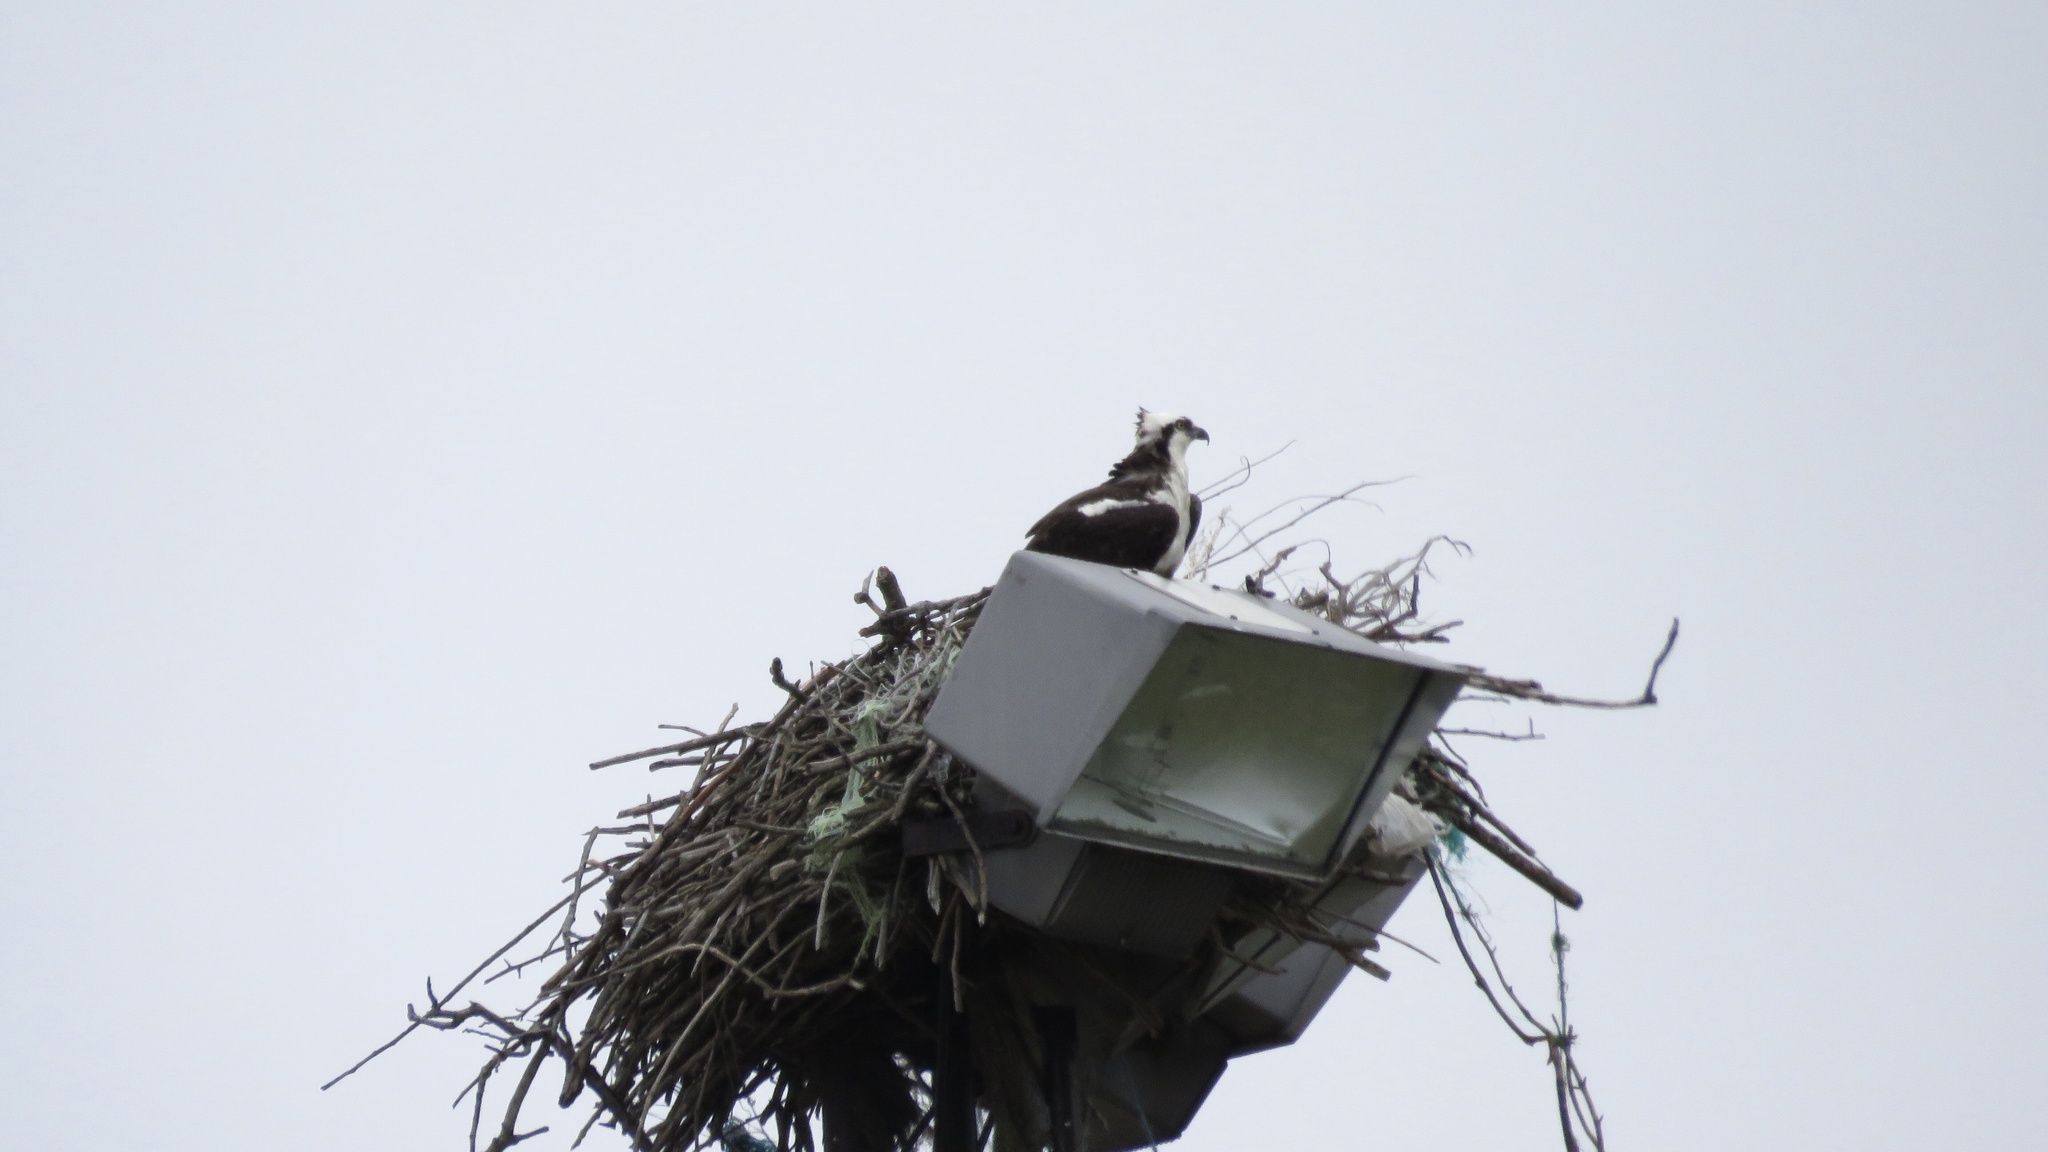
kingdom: Animalia
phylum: Chordata
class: Aves
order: Accipitriformes
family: Pandionidae
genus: Pandion
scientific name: Pandion haliaetus
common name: Osprey
